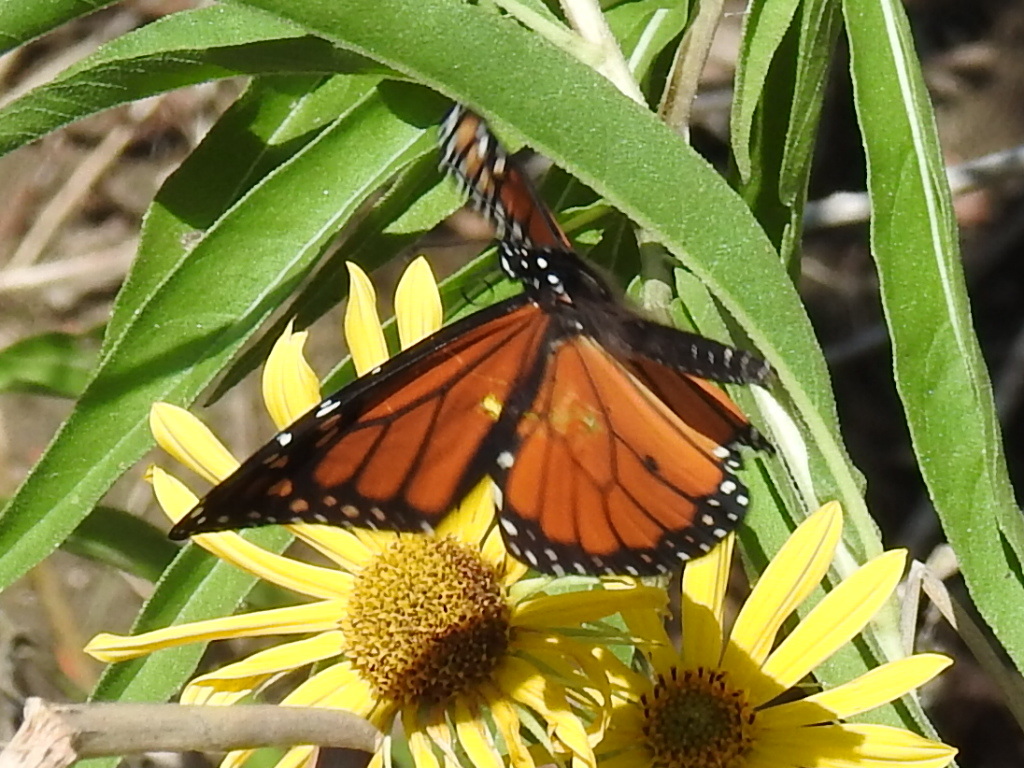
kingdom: Animalia
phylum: Arthropoda
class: Insecta
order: Lepidoptera
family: Nymphalidae
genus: Danaus
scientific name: Danaus plexippus
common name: Monarch
